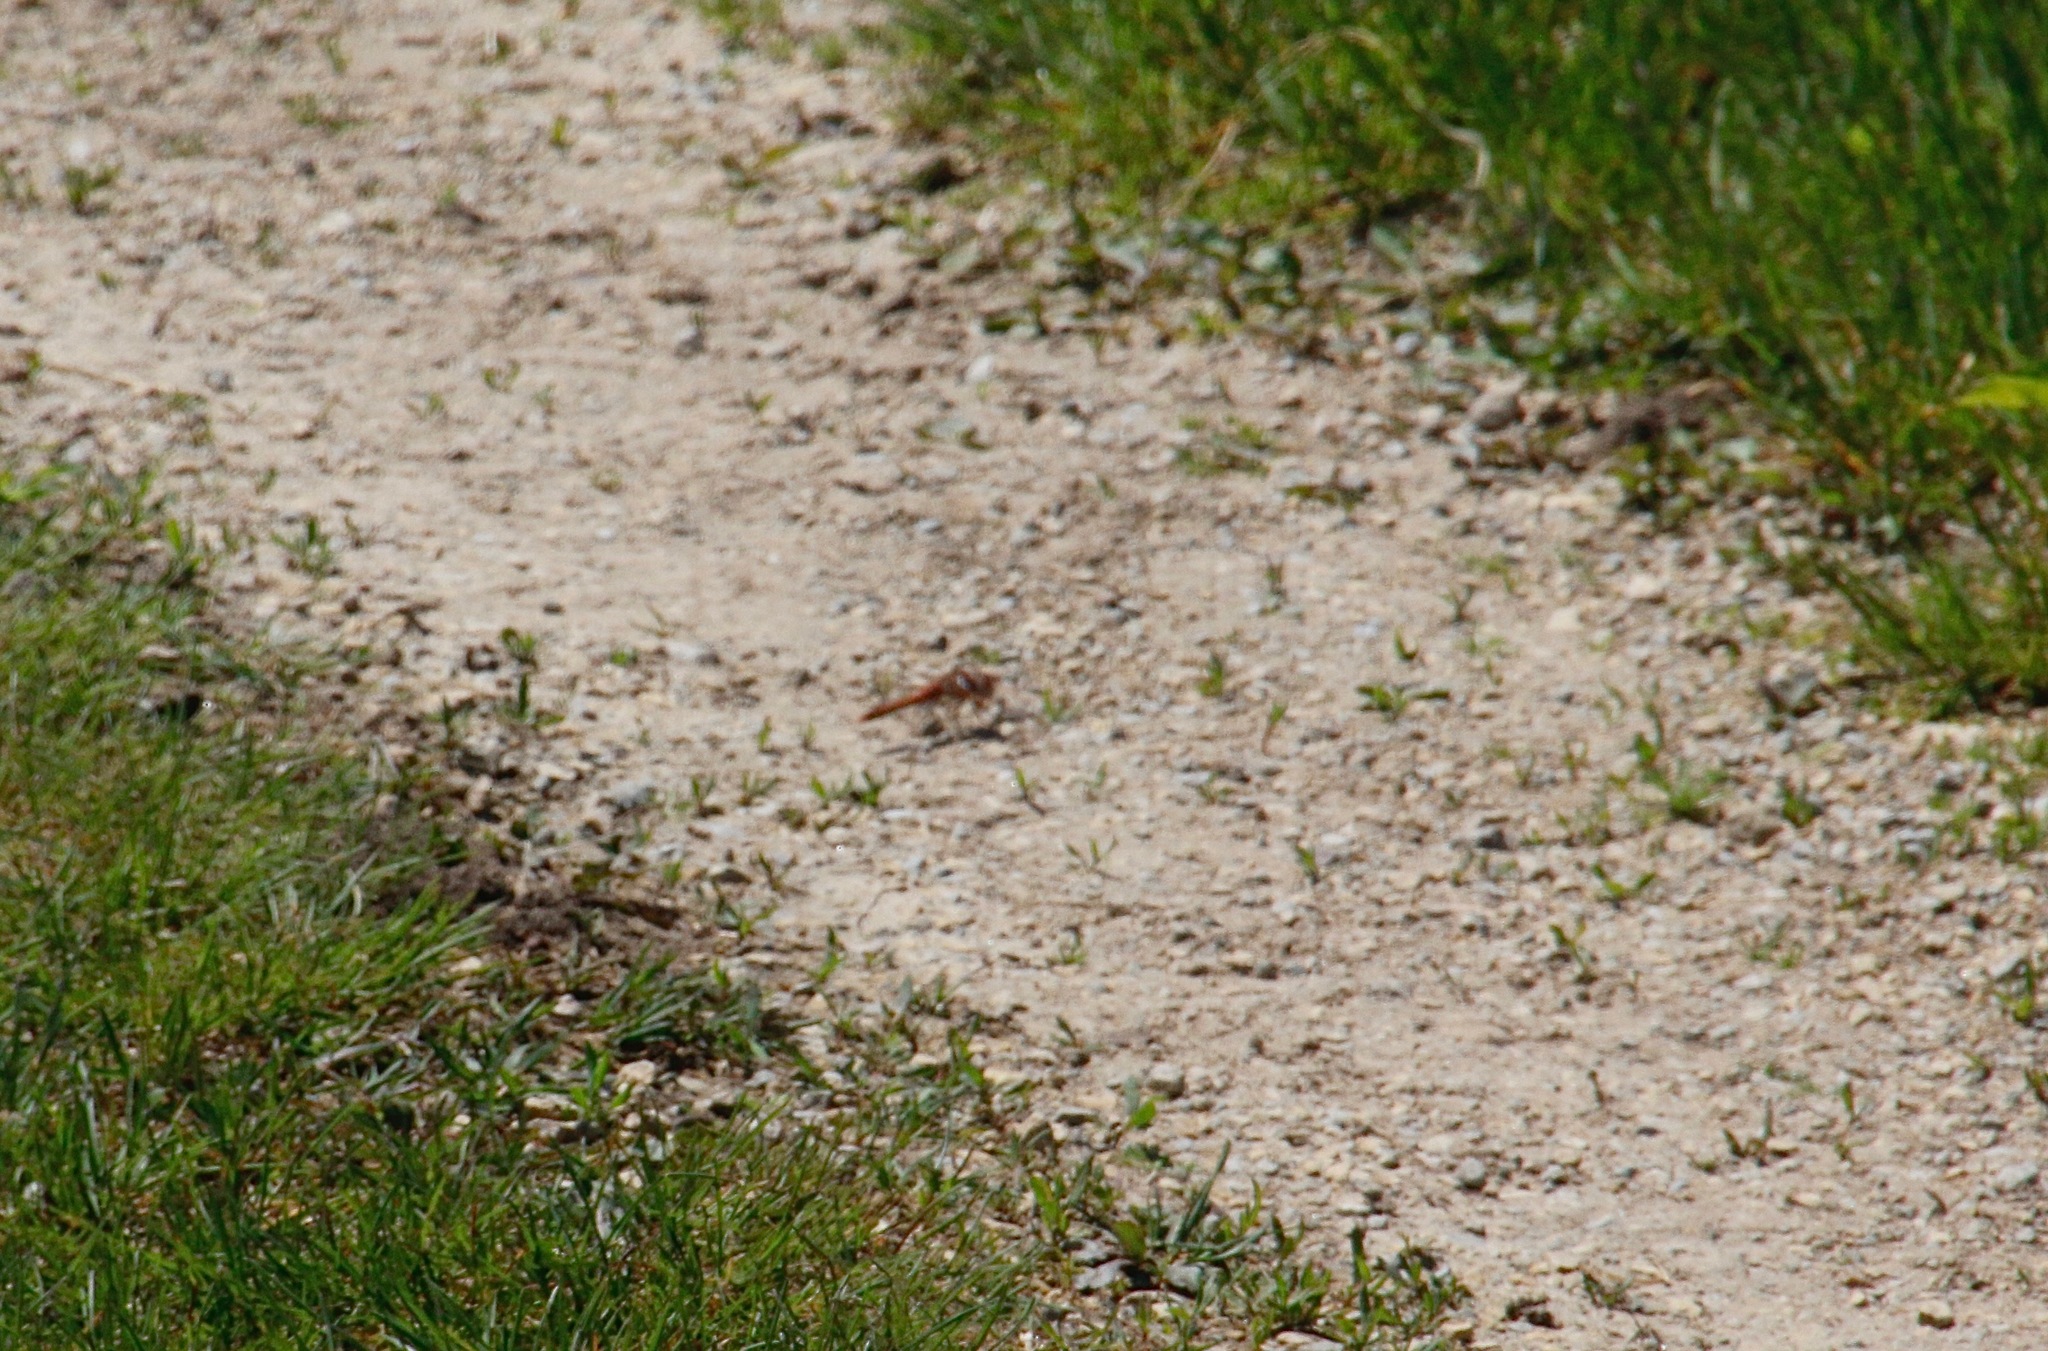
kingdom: Animalia
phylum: Arthropoda
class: Insecta
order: Odonata
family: Libellulidae
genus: Sympetrum
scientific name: Sympetrum corruptum
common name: Variegated meadowhawk
